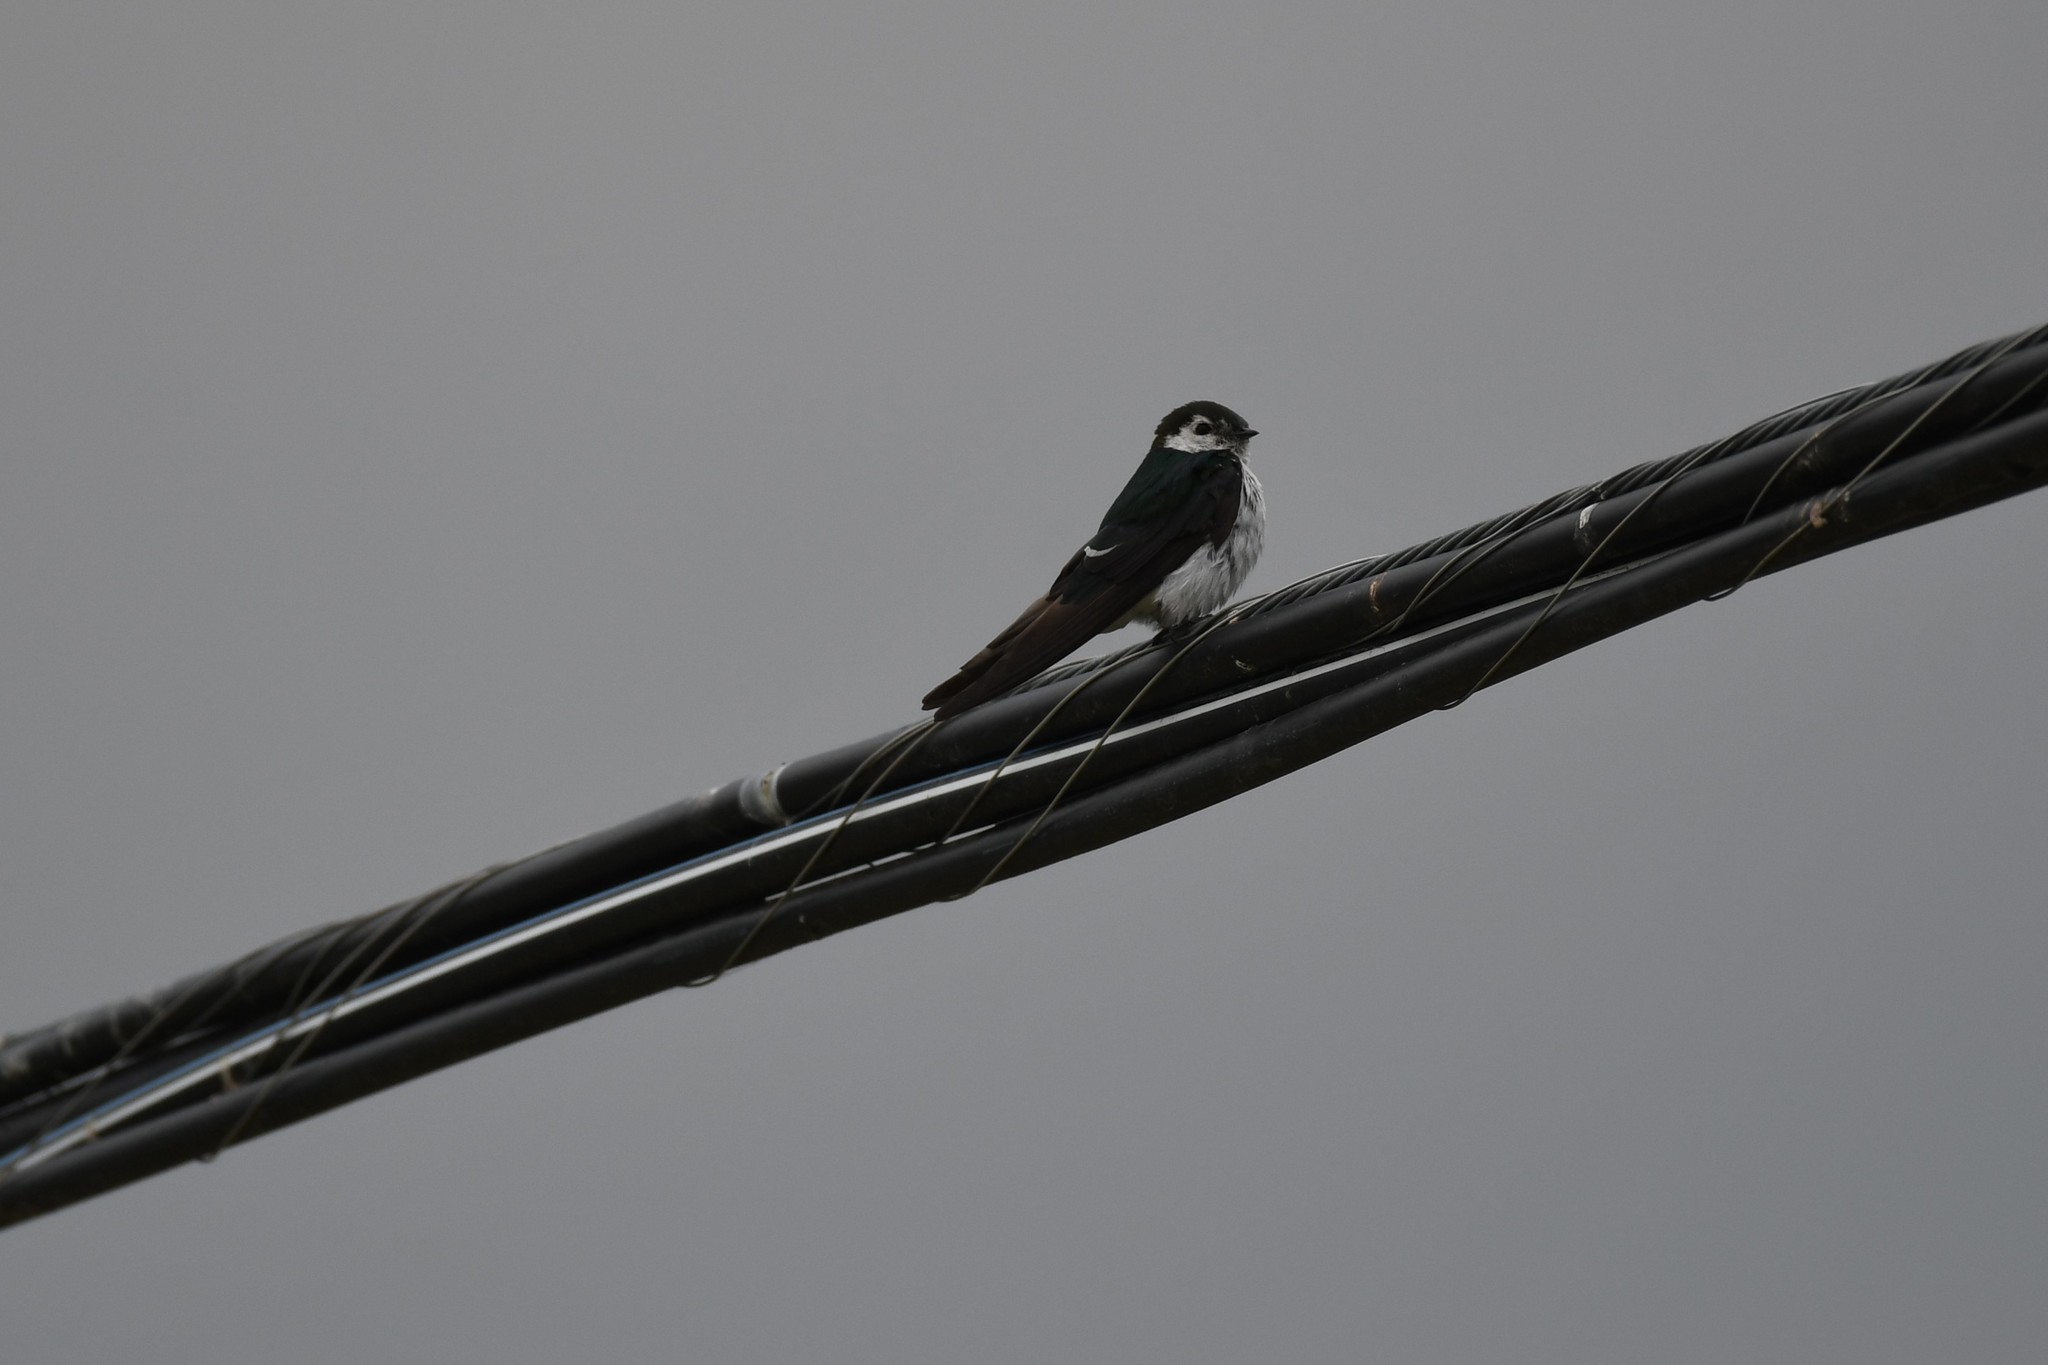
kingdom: Animalia
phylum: Chordata
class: Aves
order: Passeriformes
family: Hirundinidae
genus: Tachycineta
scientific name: Tachycineta thalassina
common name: Violet-green swallow
